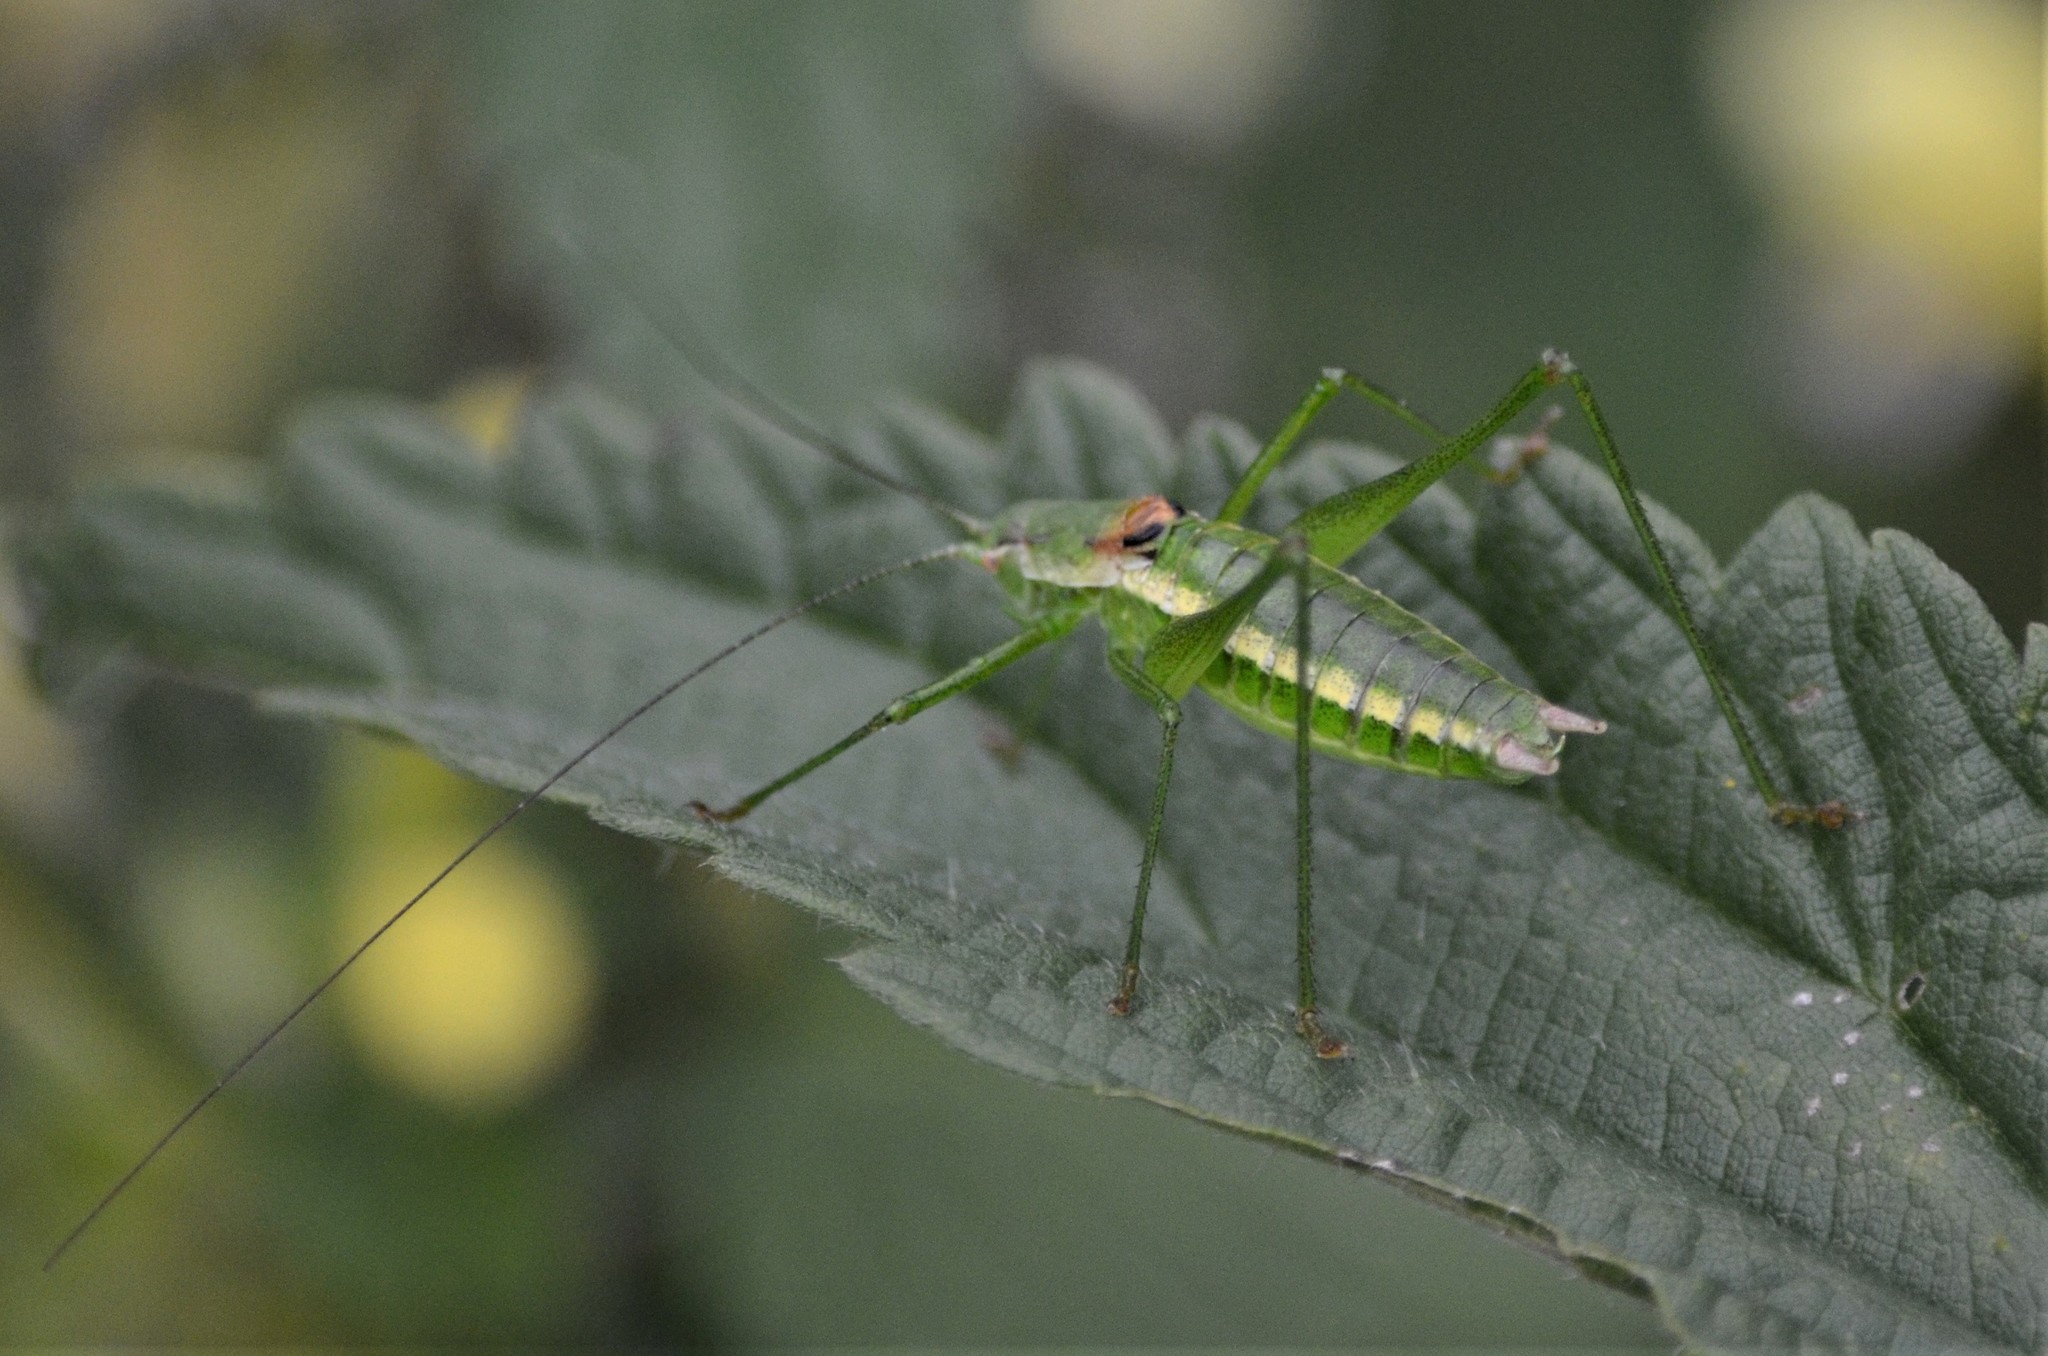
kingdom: Animalia
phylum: Arthropoda
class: Insecta
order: Orthoptera
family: Tettigoniidae
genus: Leptophyes
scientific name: Leptophyes boscii
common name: Balkan speckled bush-cricket
